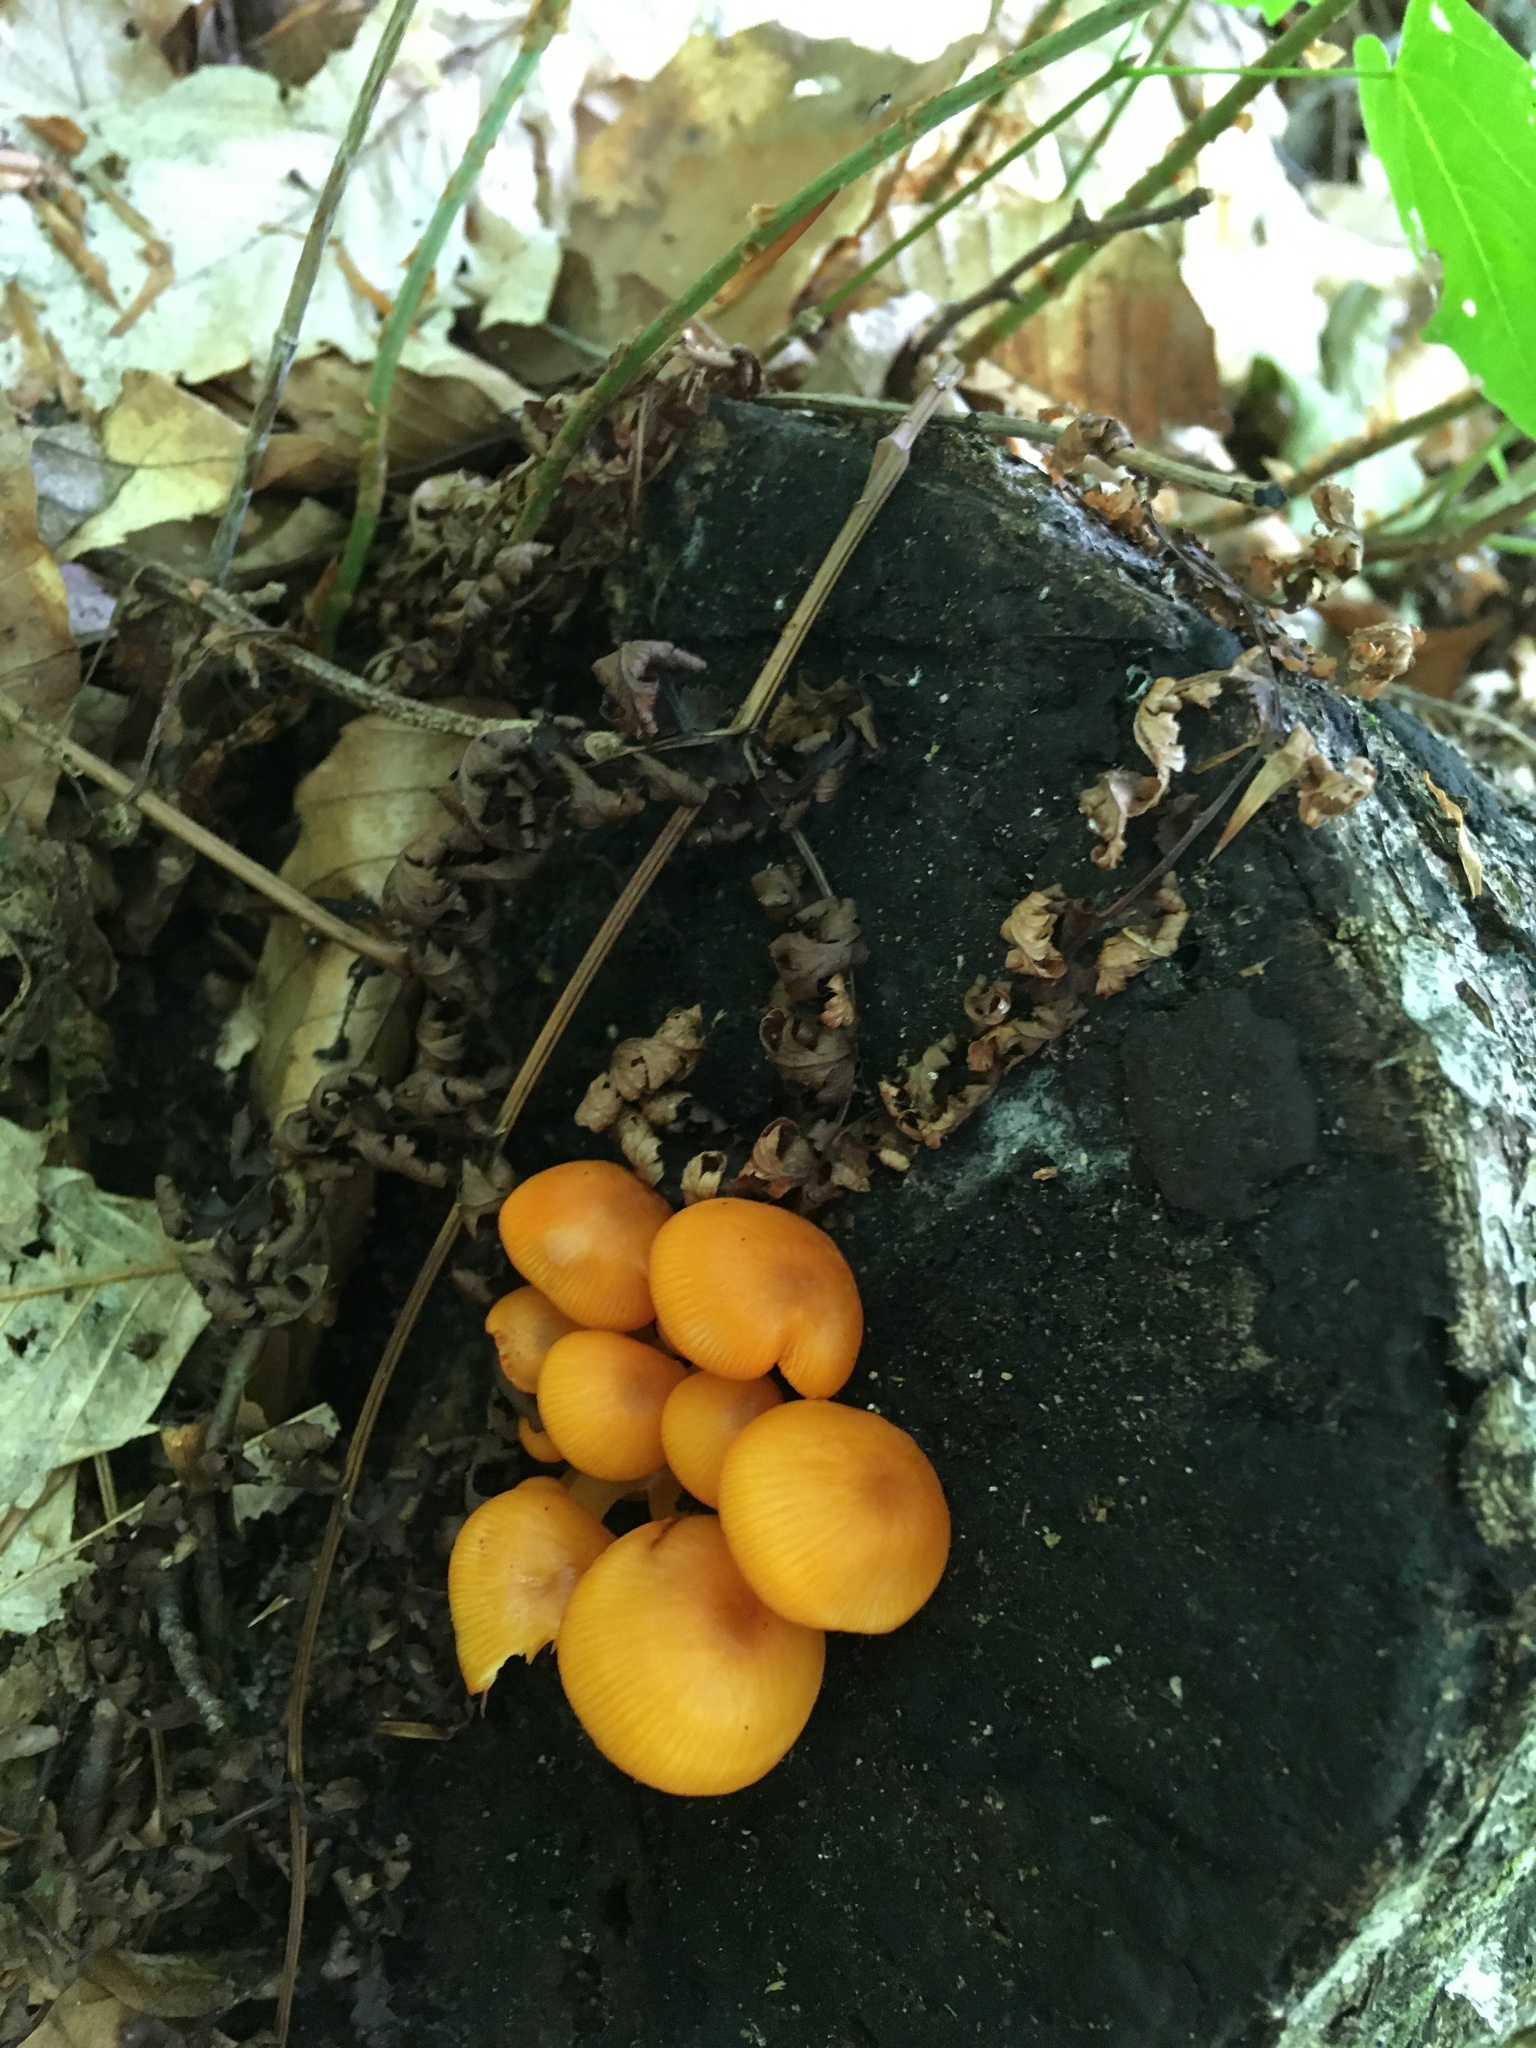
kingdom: Fungi
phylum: Basidiomycota
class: Agaricomycetes
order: Agaricales
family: Mycenaceae
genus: Mycena
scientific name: Mycena leaiana
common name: Orange mycena
